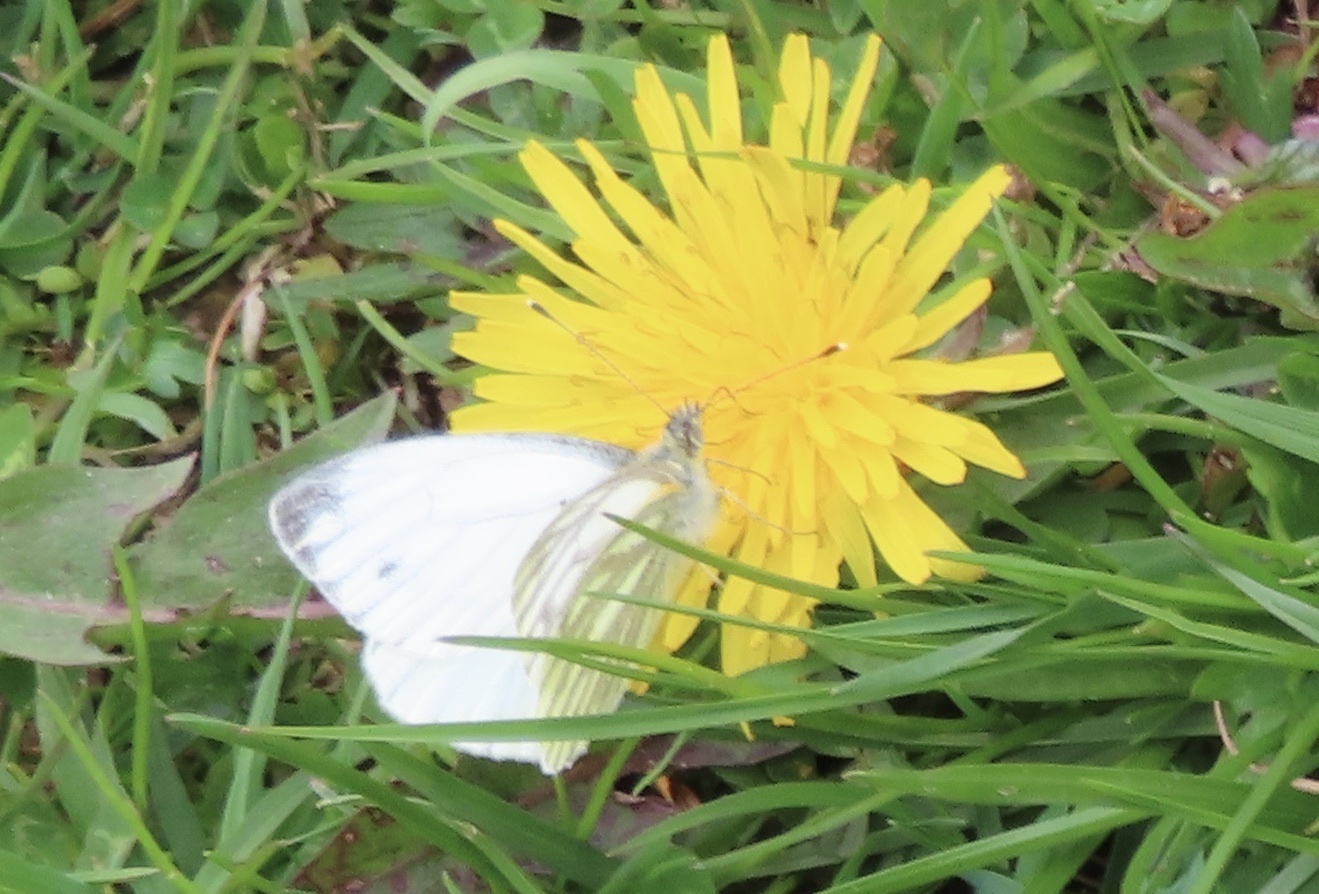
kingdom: Animalia
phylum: Arthropoda
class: Insecta
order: Lepidoptera
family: Pieridae
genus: Pieris
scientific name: Pieris napi
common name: Green-veined white
